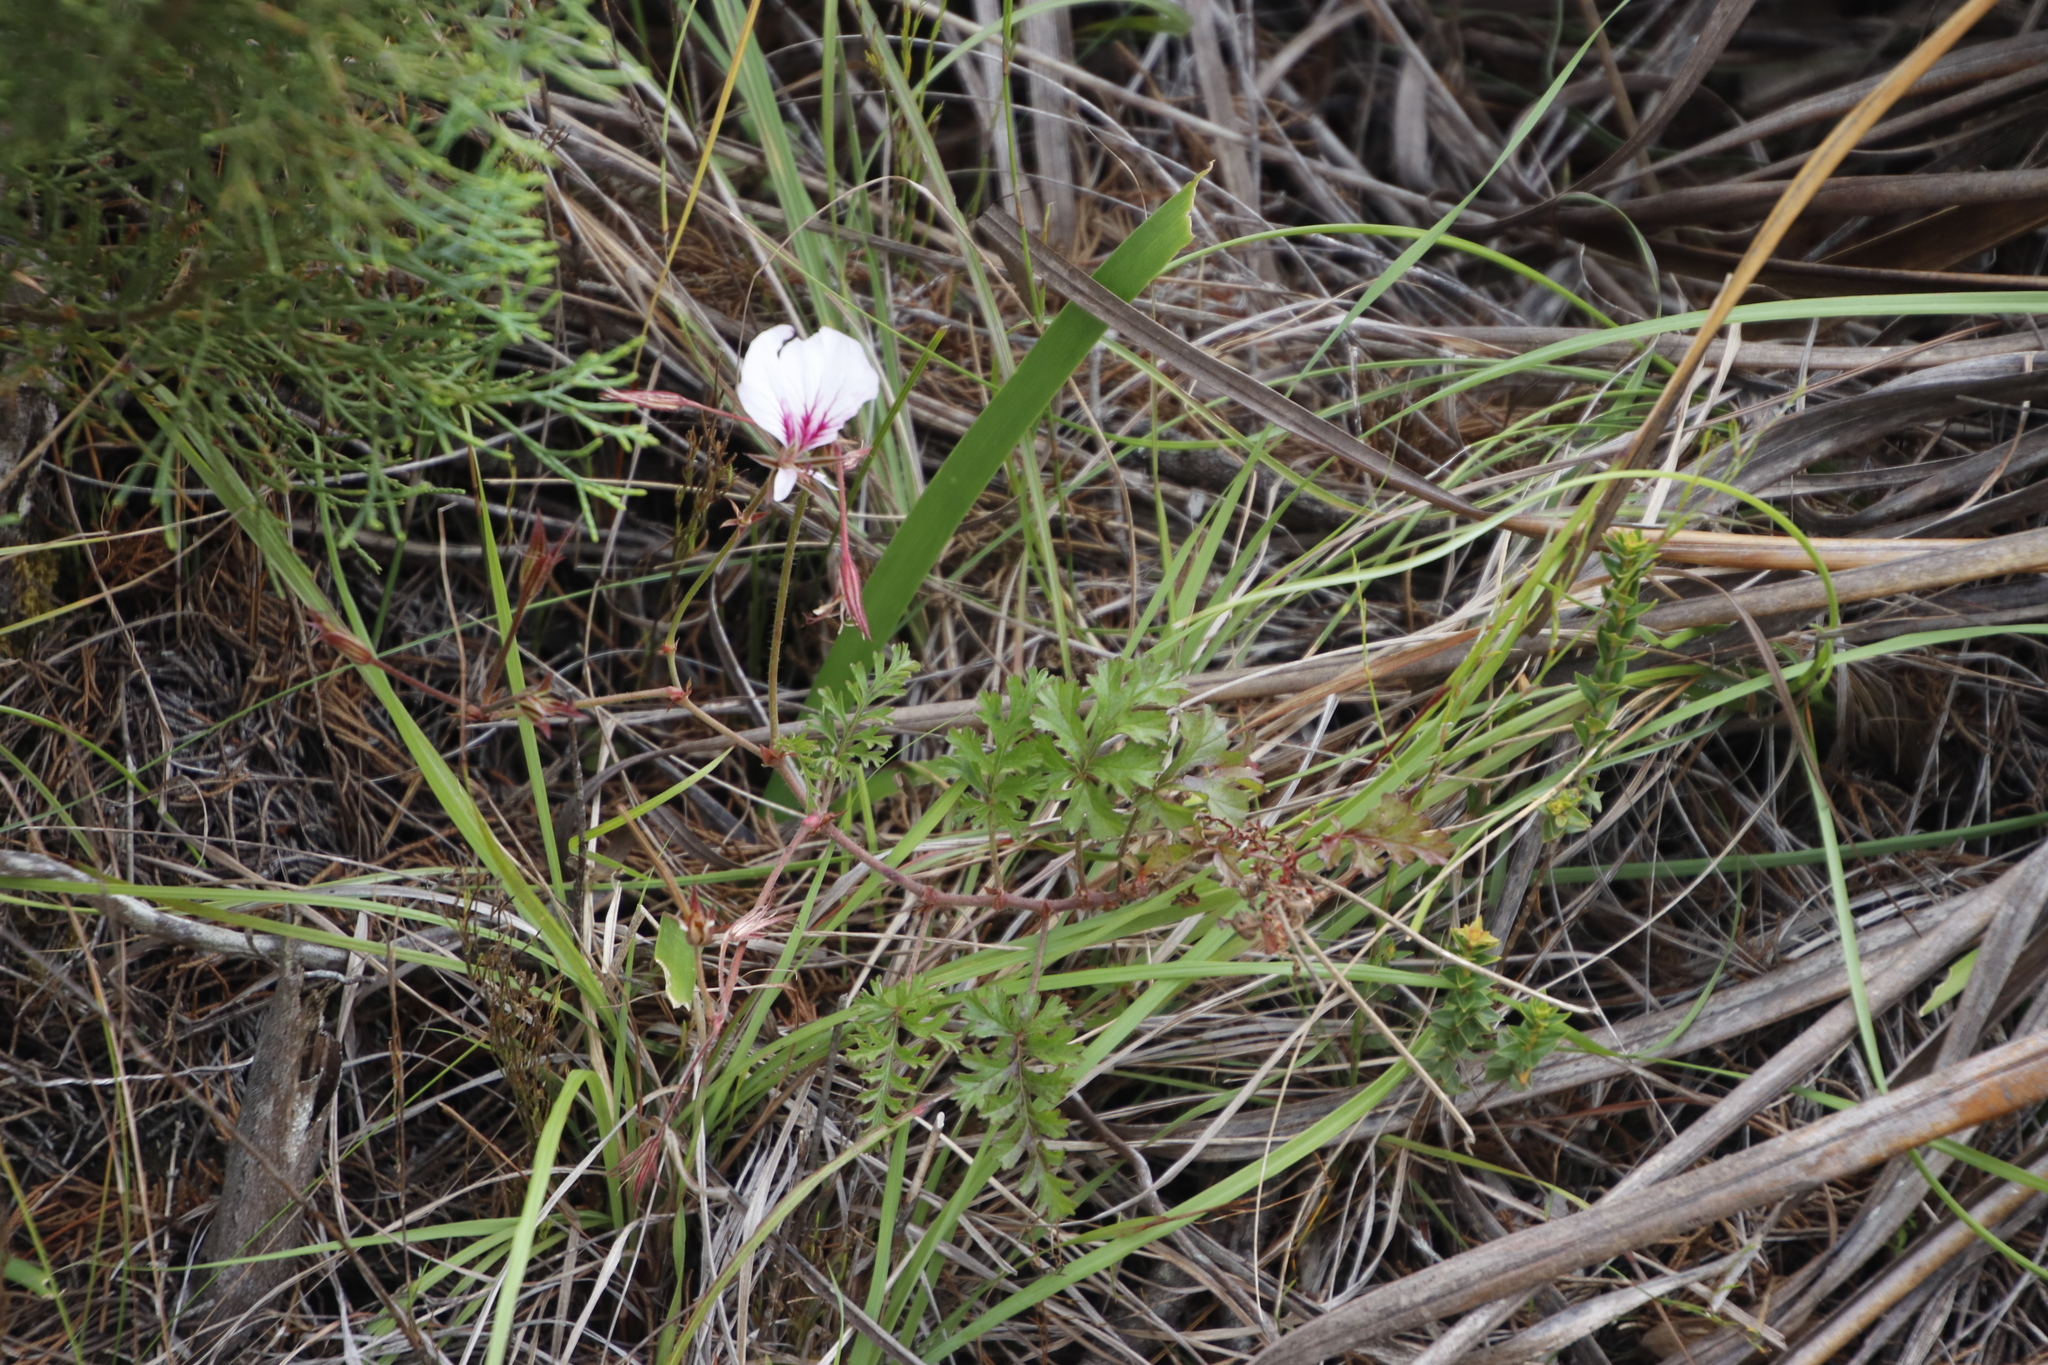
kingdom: Plantae
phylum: Tracheophyta
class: Magnoliopsida
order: Geraniales
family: Geraniaceae
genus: Pelargonium
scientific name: Pelargonium longicaule
